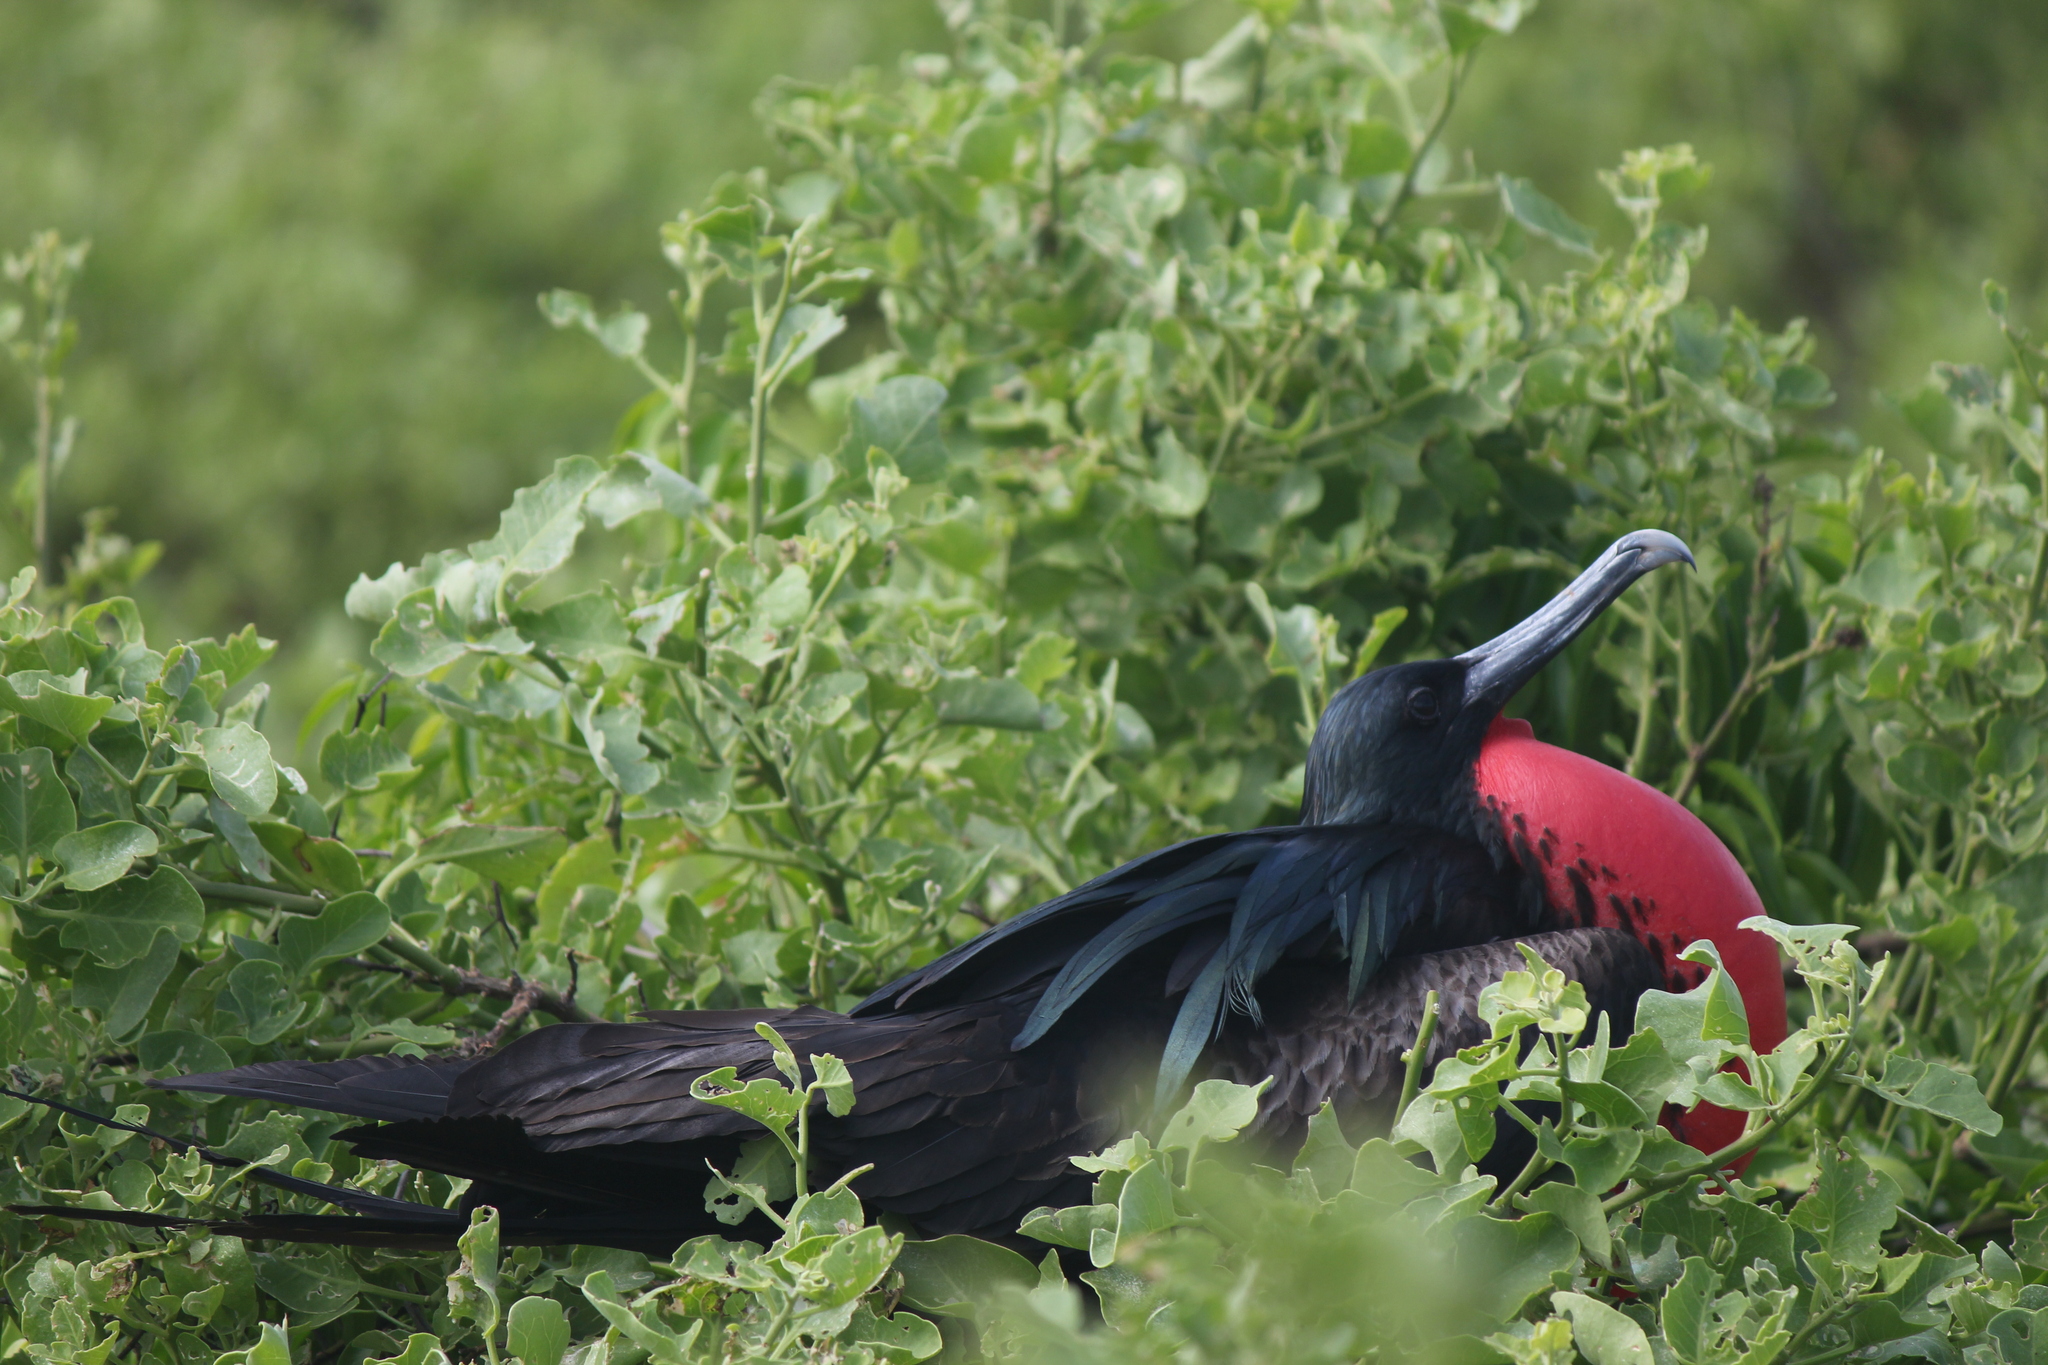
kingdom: Animalia
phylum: Chordata
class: Aves
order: Suliformes
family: Fregatidae
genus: Fregata
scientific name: Fregata minor
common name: Great frigatebird
